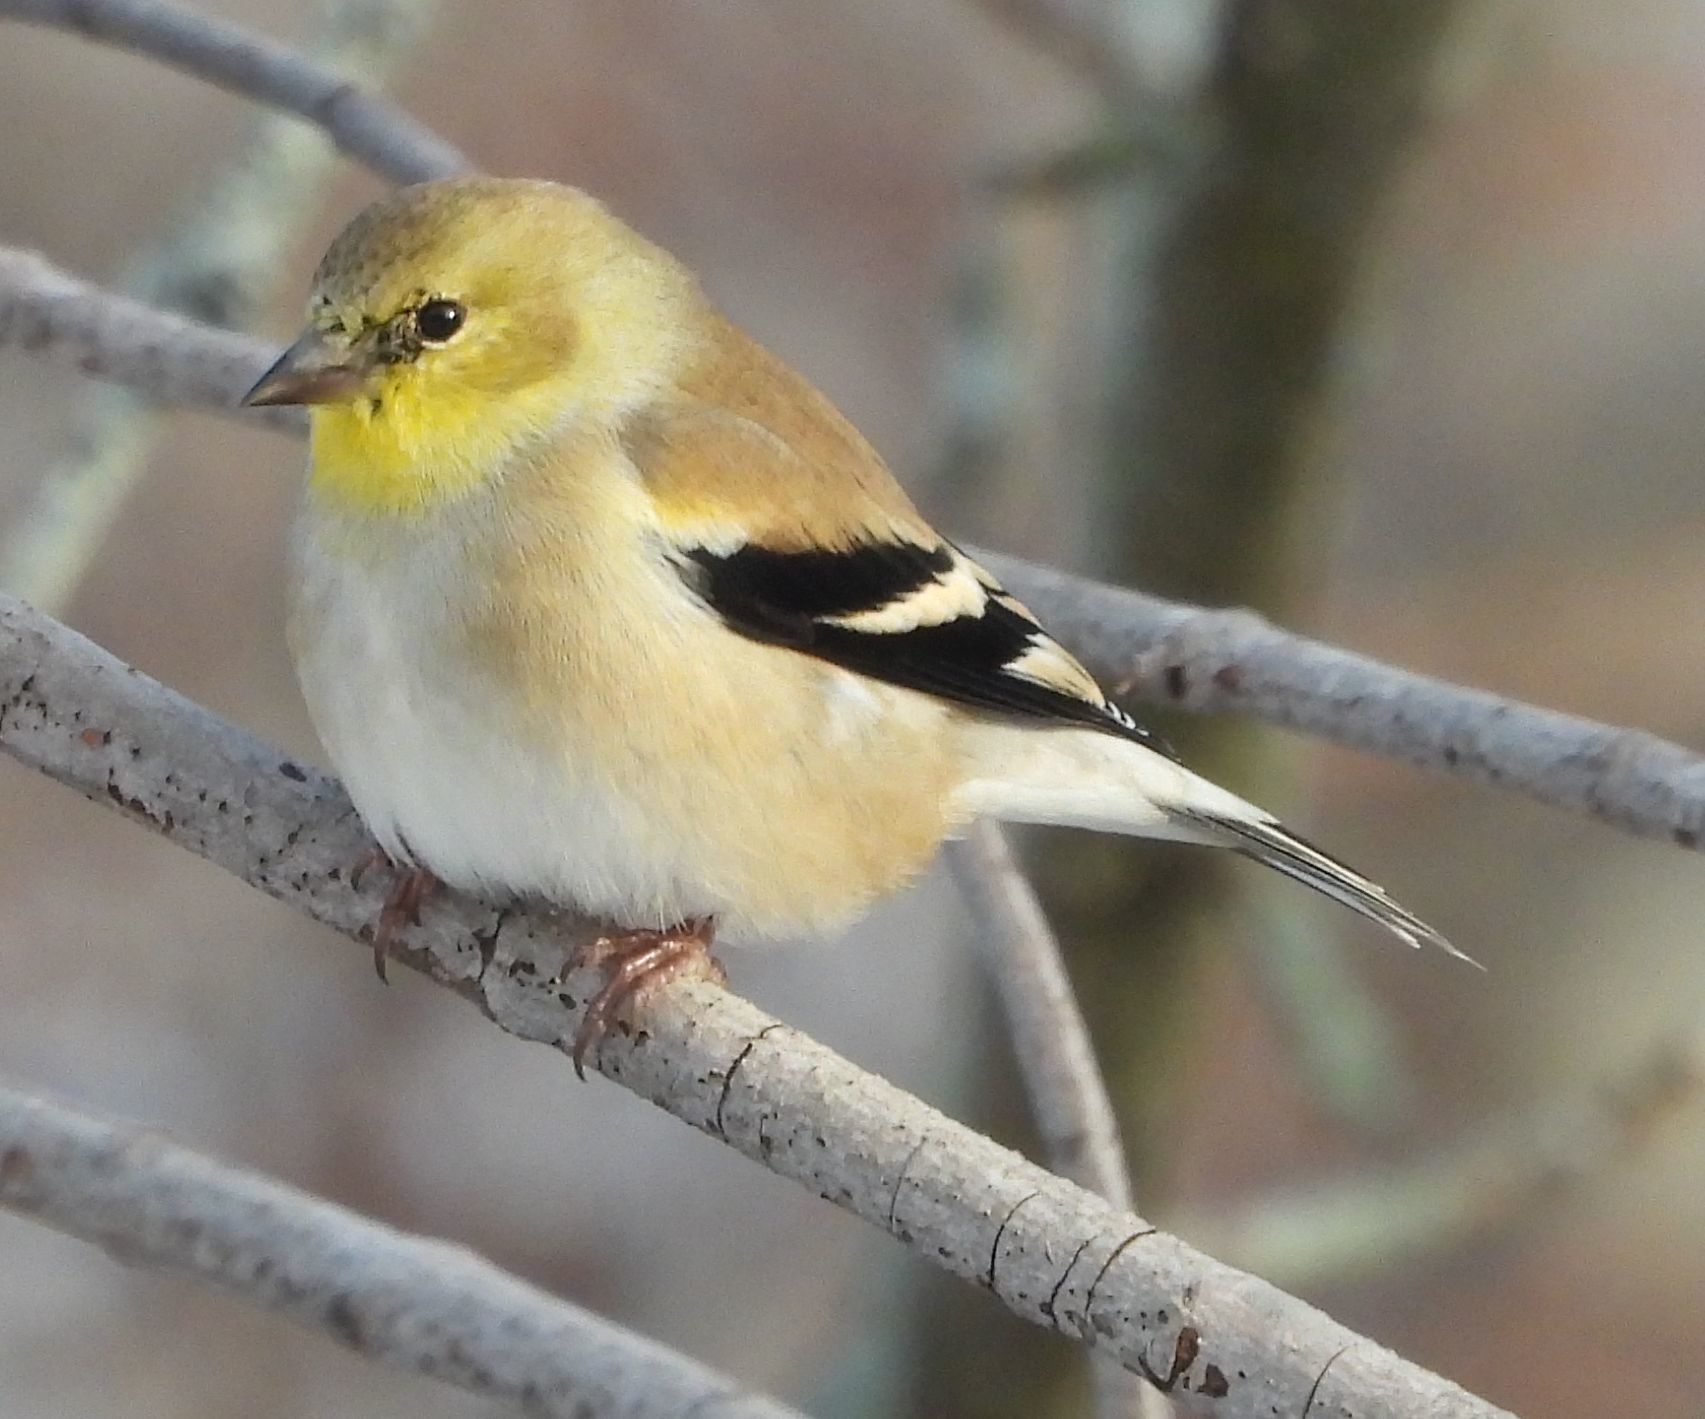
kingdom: Animalia
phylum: Chordata
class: Aves
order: Passeriformes
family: Fringillidae
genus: Spinus
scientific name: Spinus tristis
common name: American goldfinch
